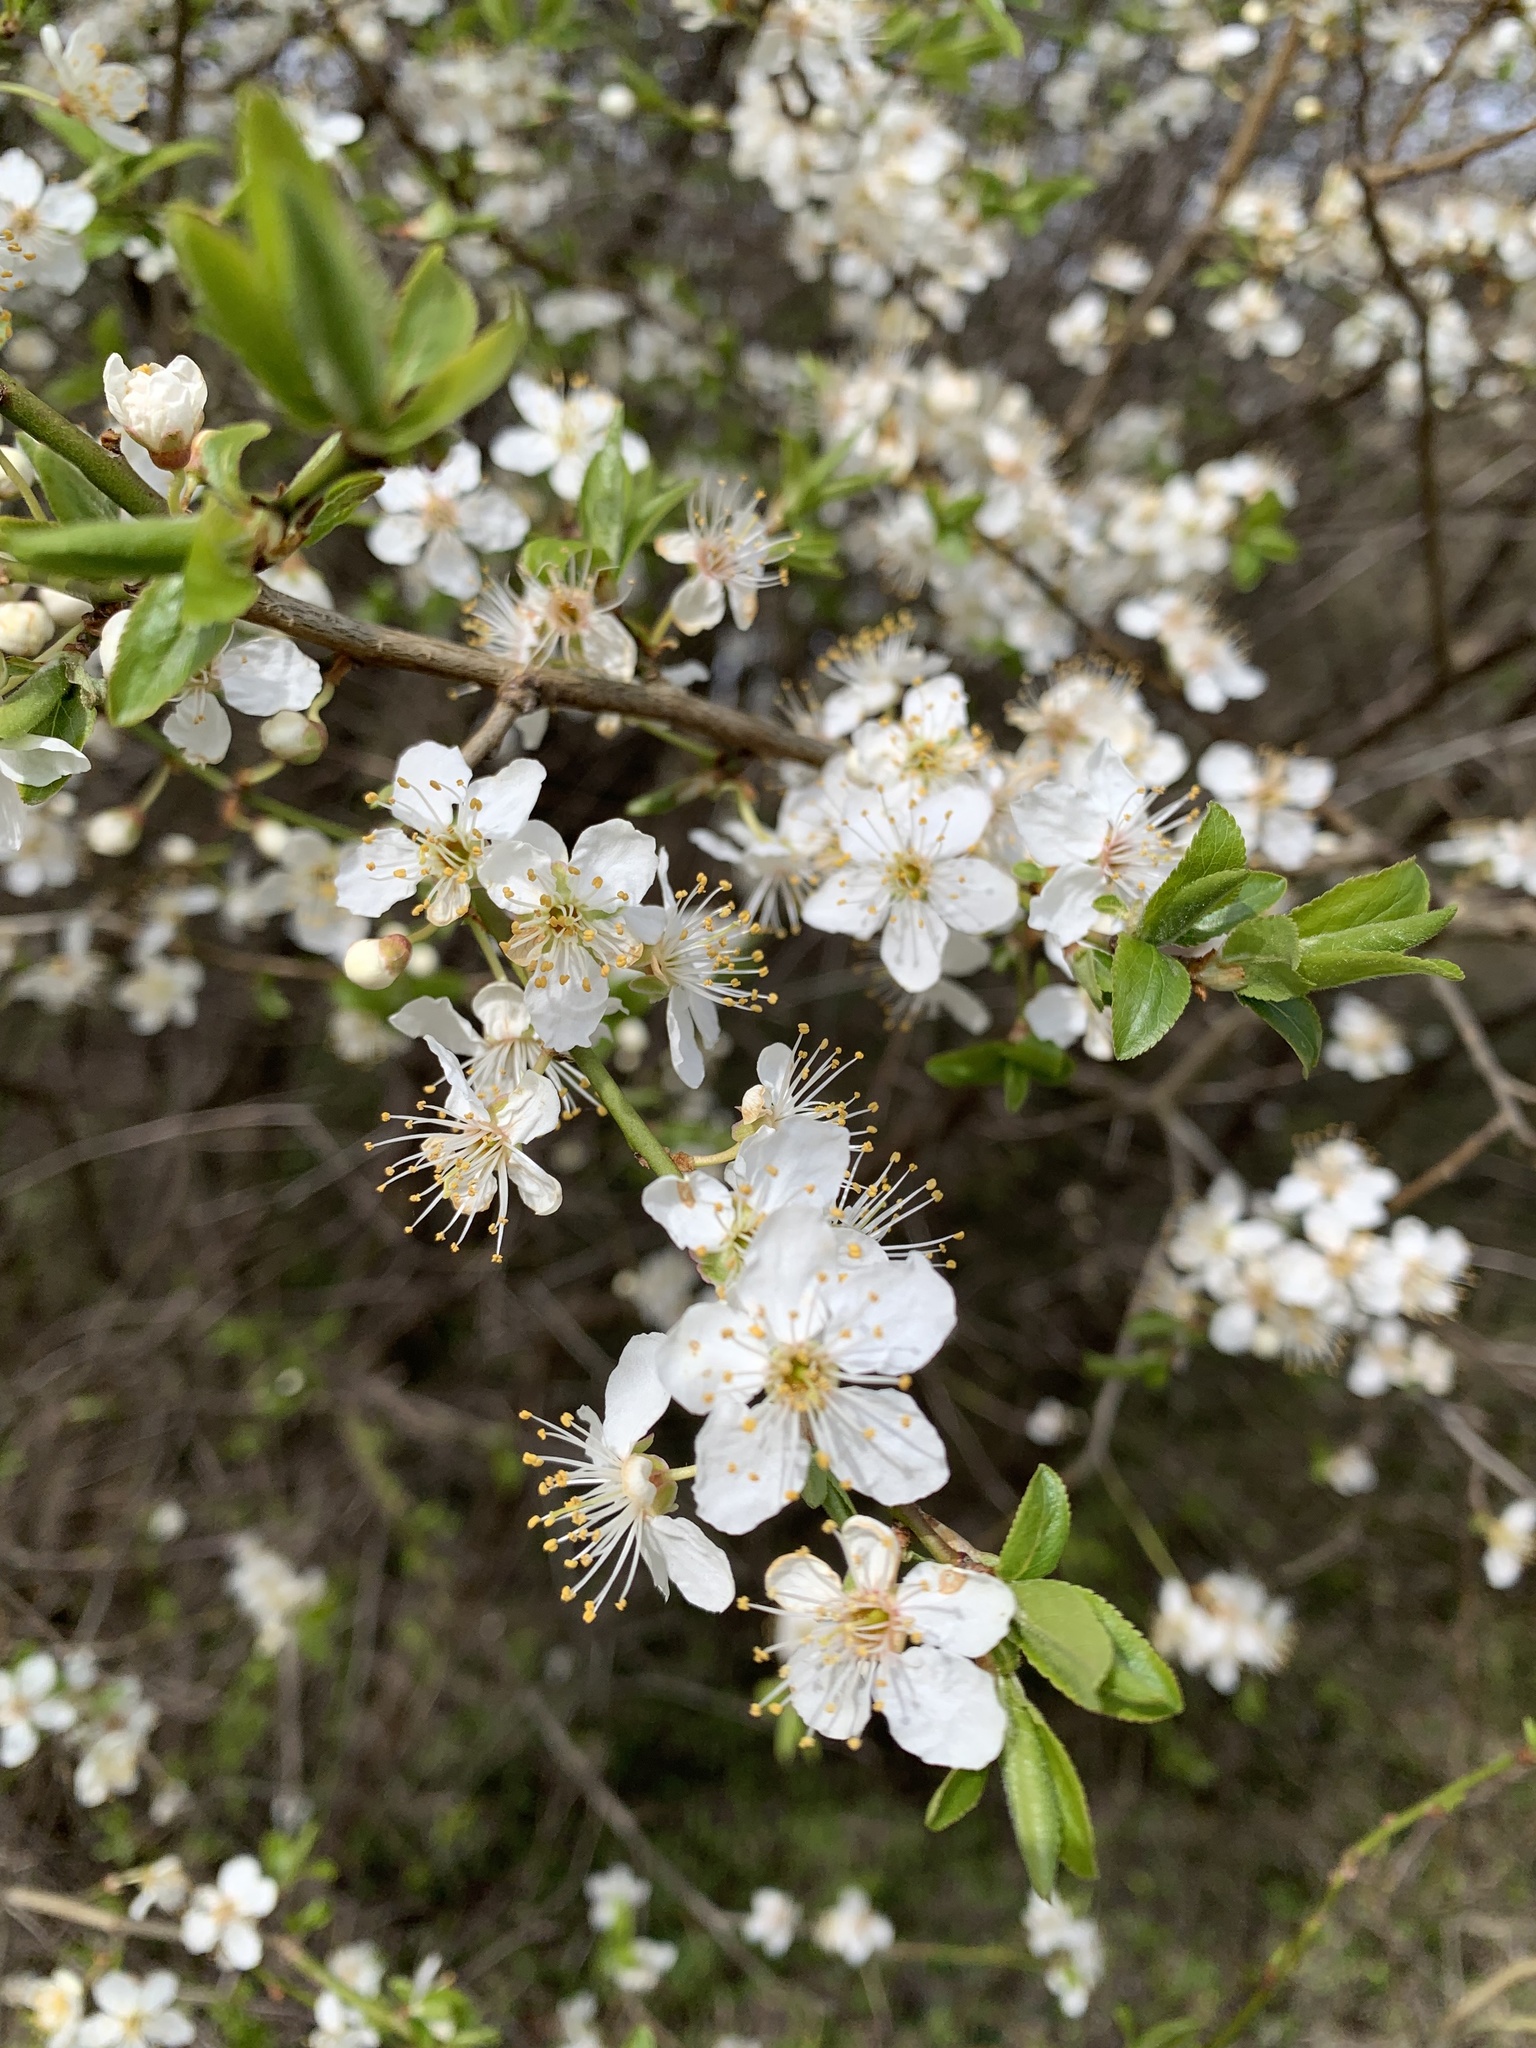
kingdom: Plantae
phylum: Tracheophyta
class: Magnoliopsida
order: Rosales
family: Rosaceae
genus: Prunus
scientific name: Prunus cerasifera
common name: Cherry plum
